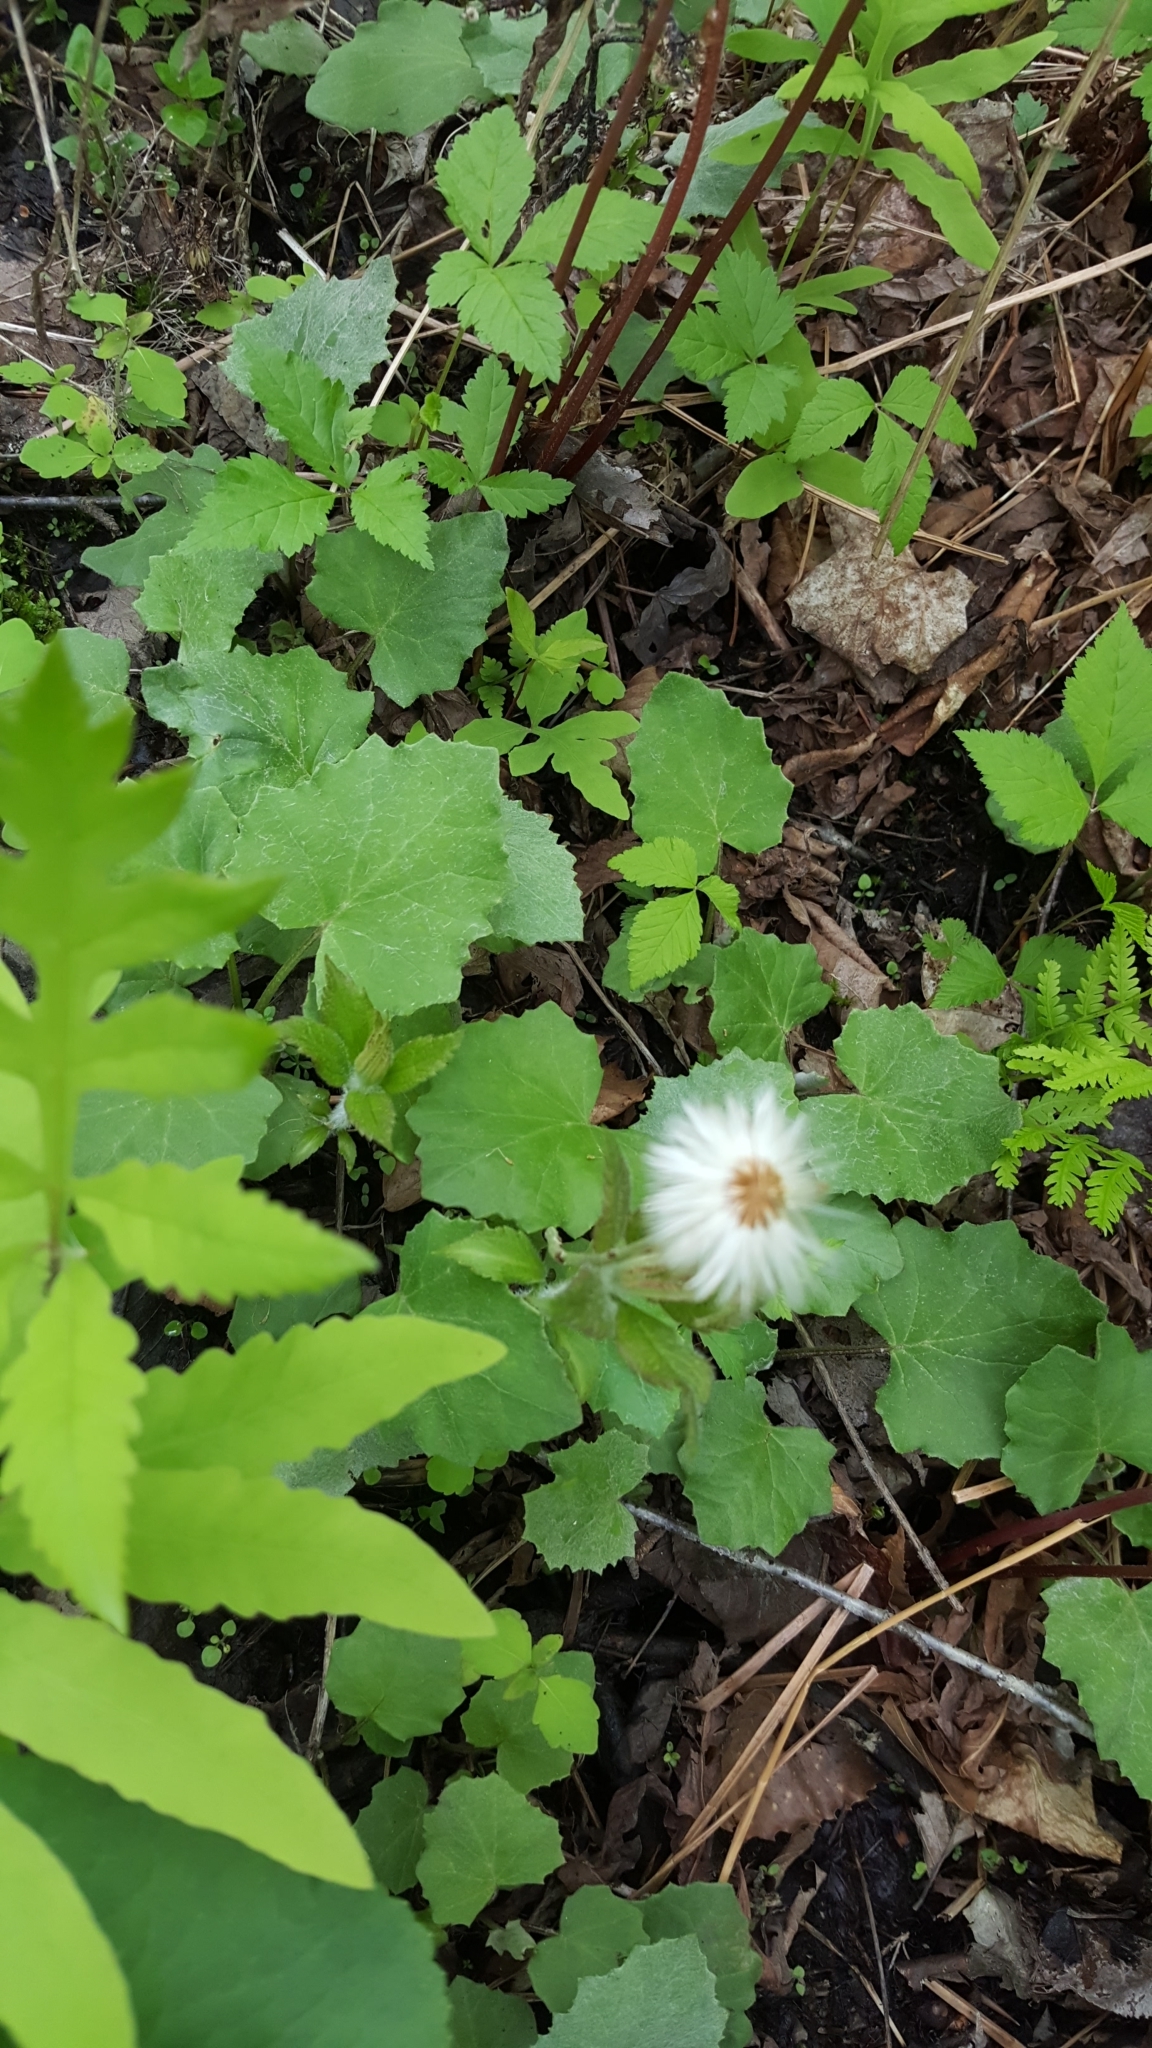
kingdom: Plantae
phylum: Tracheophyta
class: Magnoliopsida
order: Asterales
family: Asteraceae
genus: Tussilago
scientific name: Tussilago farfara
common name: Coltsfoot
